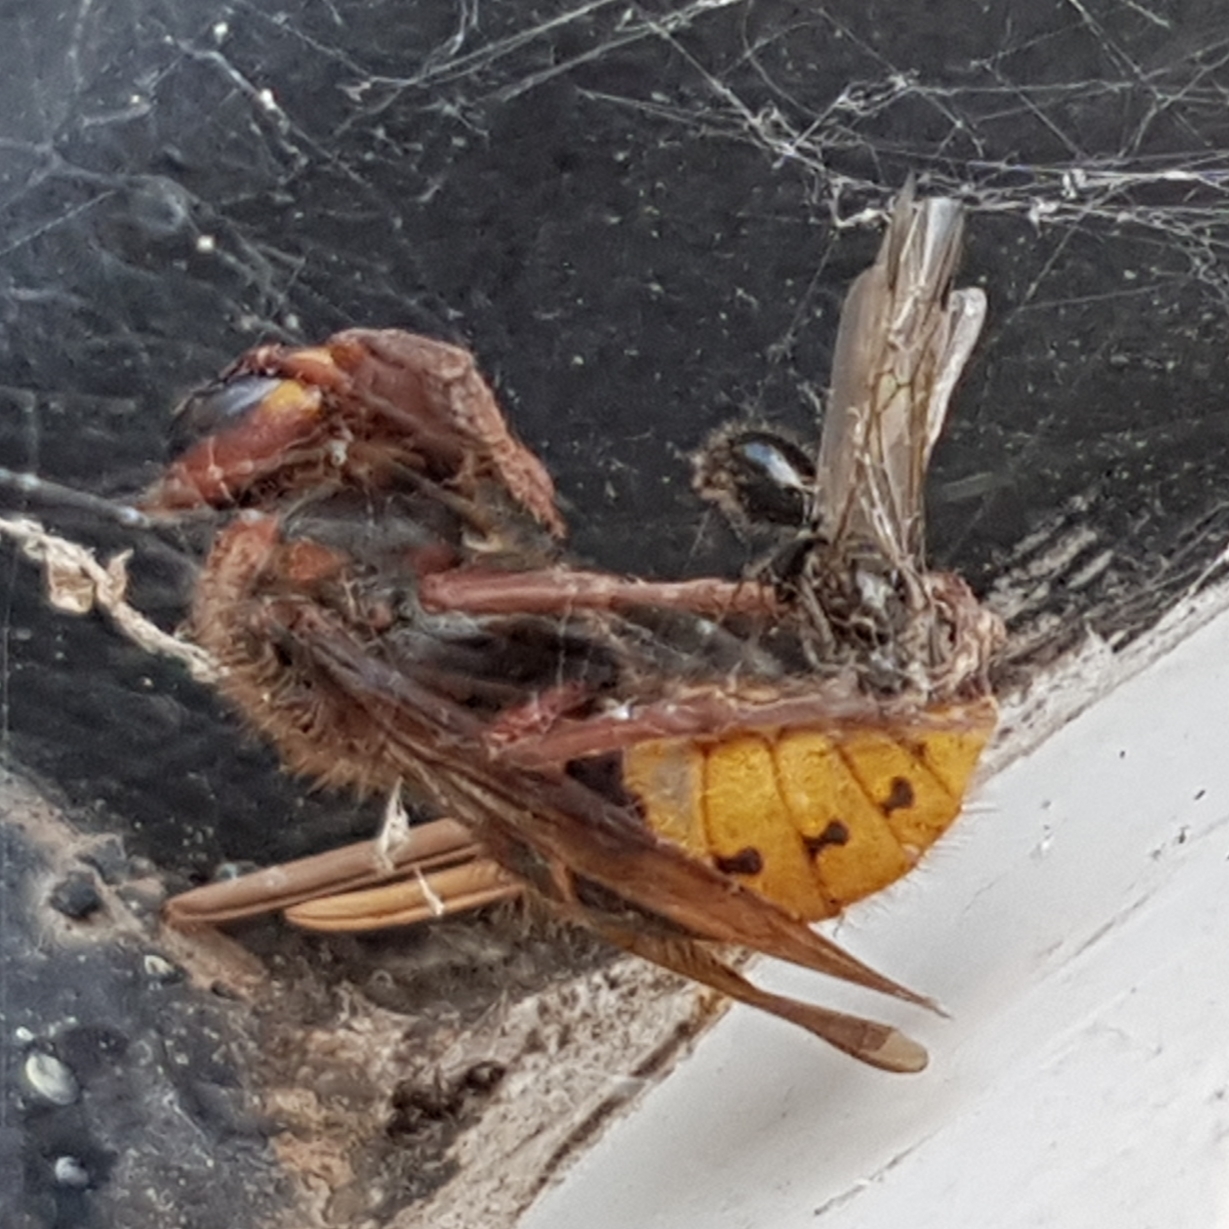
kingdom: Animalia
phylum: Arthropoda
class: Insecta
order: Hymenoptera
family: Vespidae
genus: Vespa
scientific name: Vespa crabro
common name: Hornet
